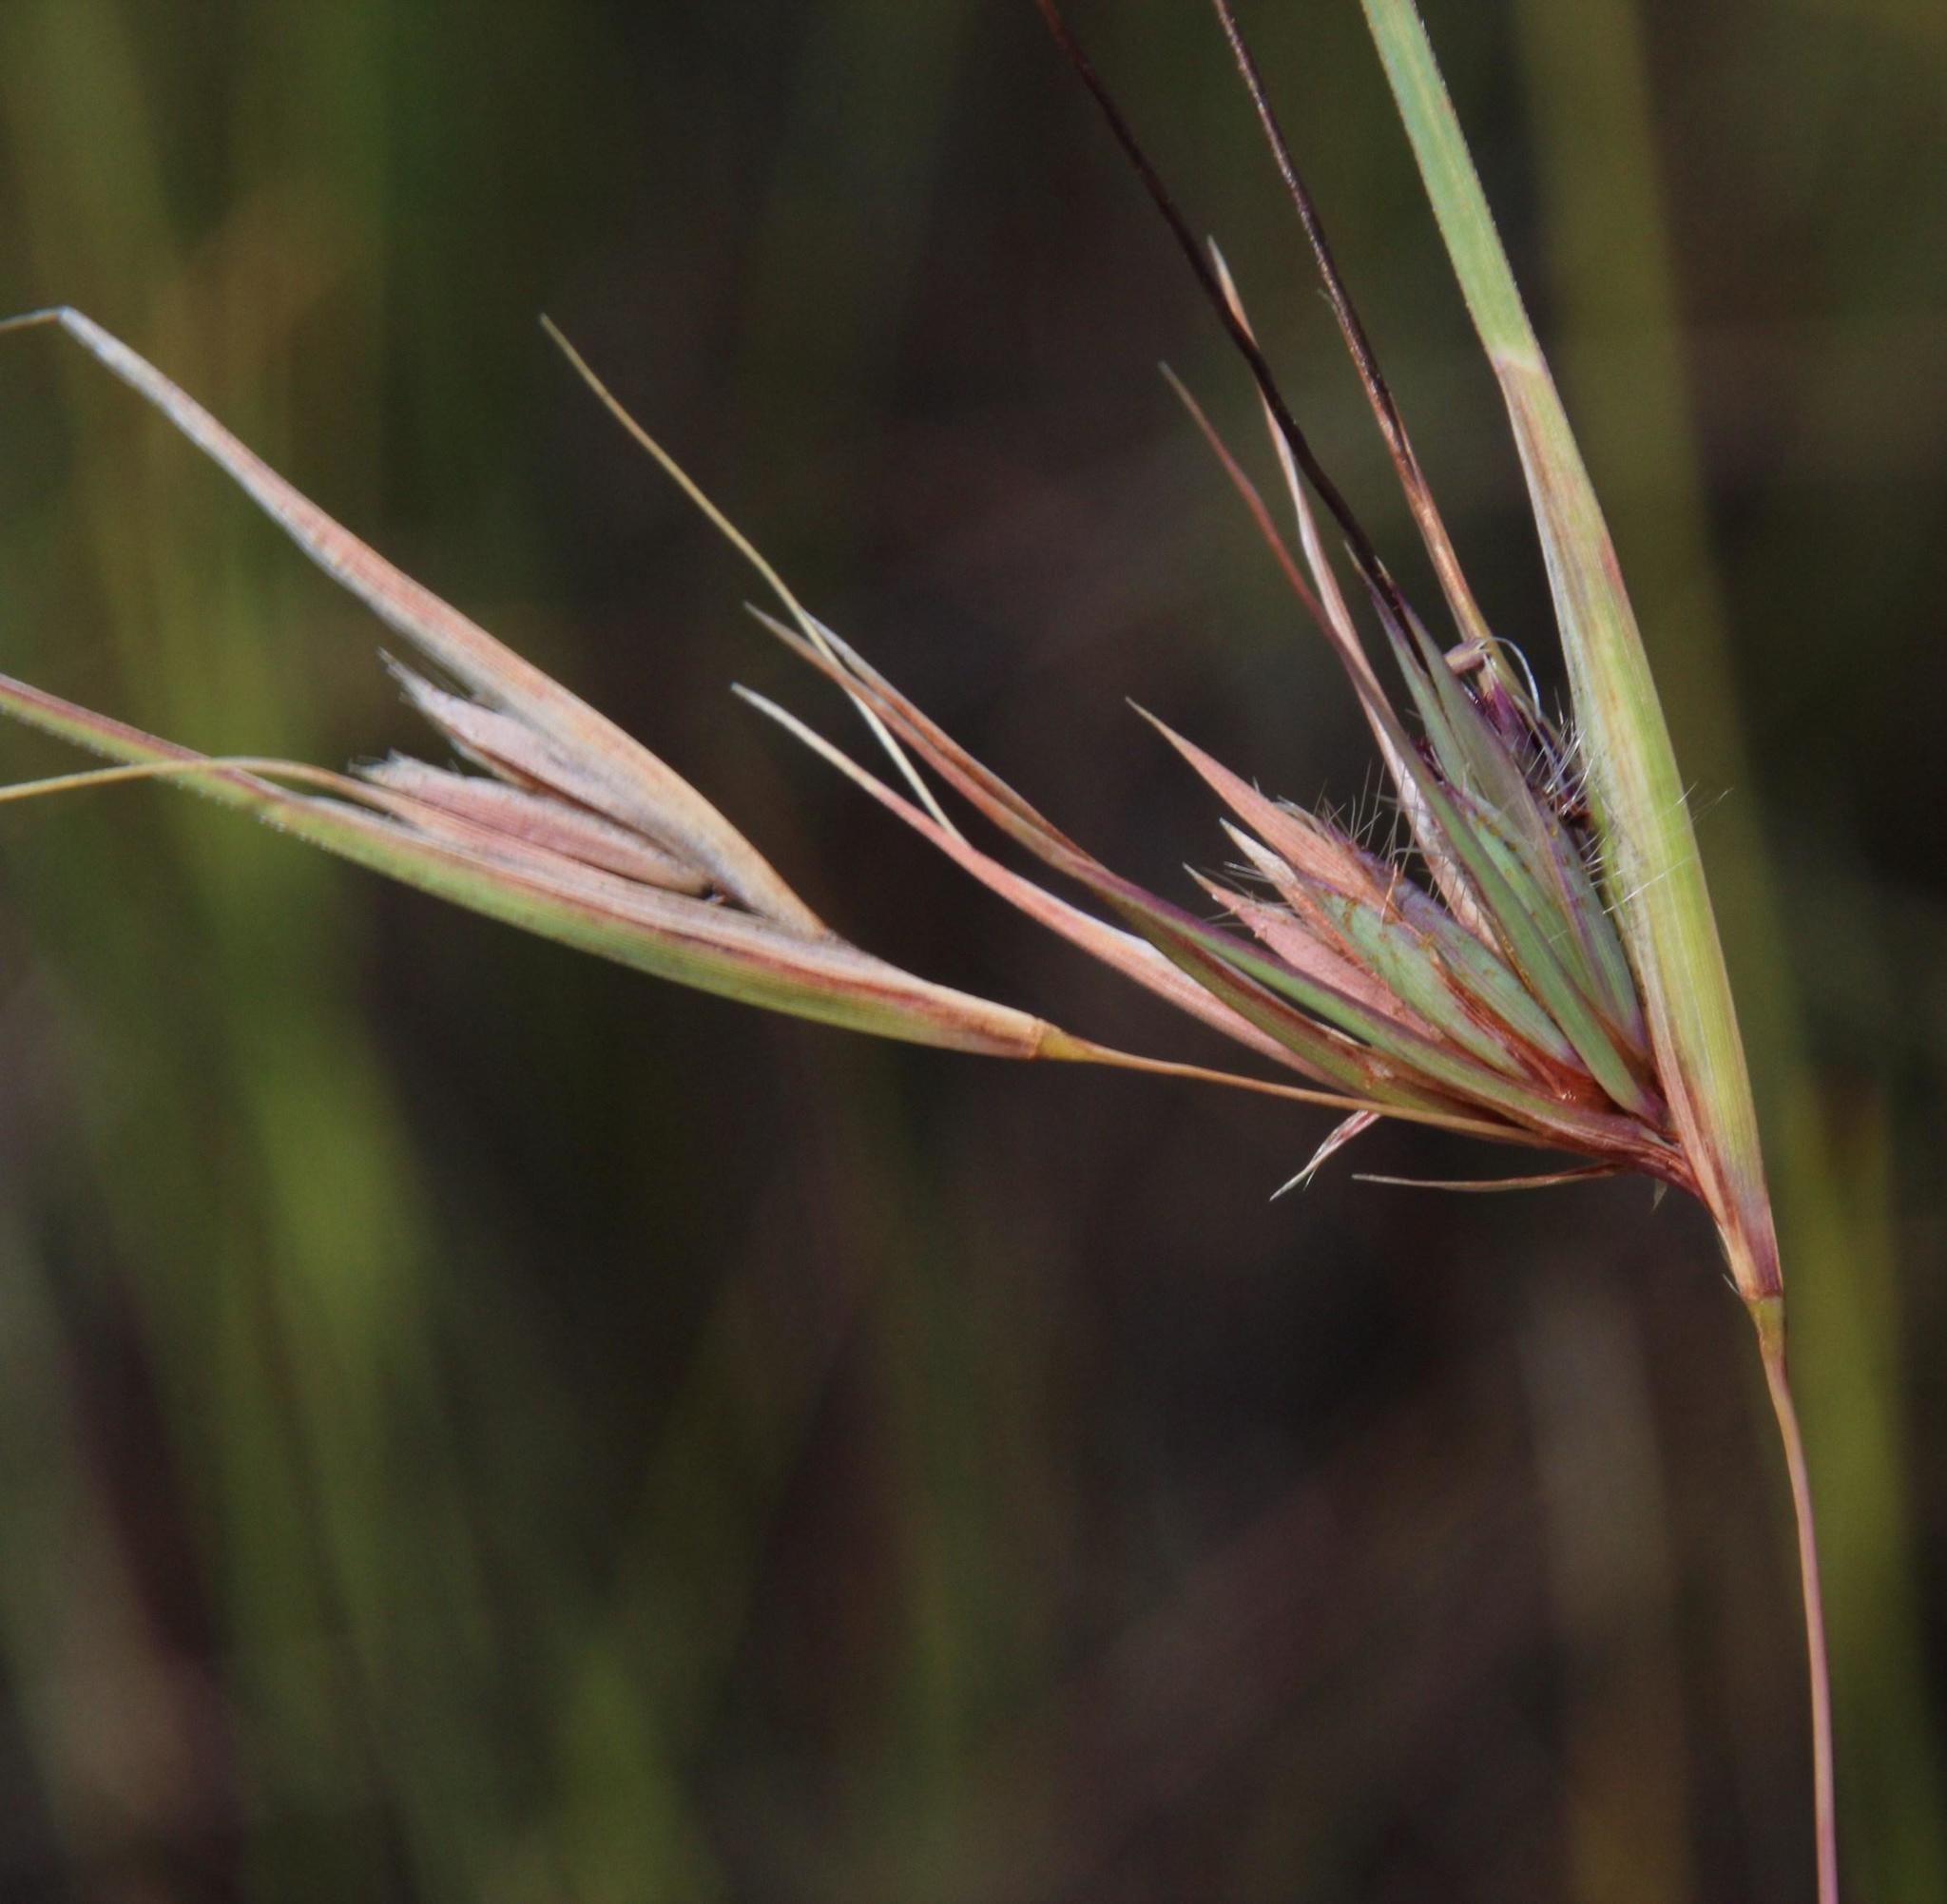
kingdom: Plantae
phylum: Tracheophyta
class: Liliopsida
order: Poales
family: Poaceae
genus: Themeda
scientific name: Themeda triandra
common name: Kangaroo grass
